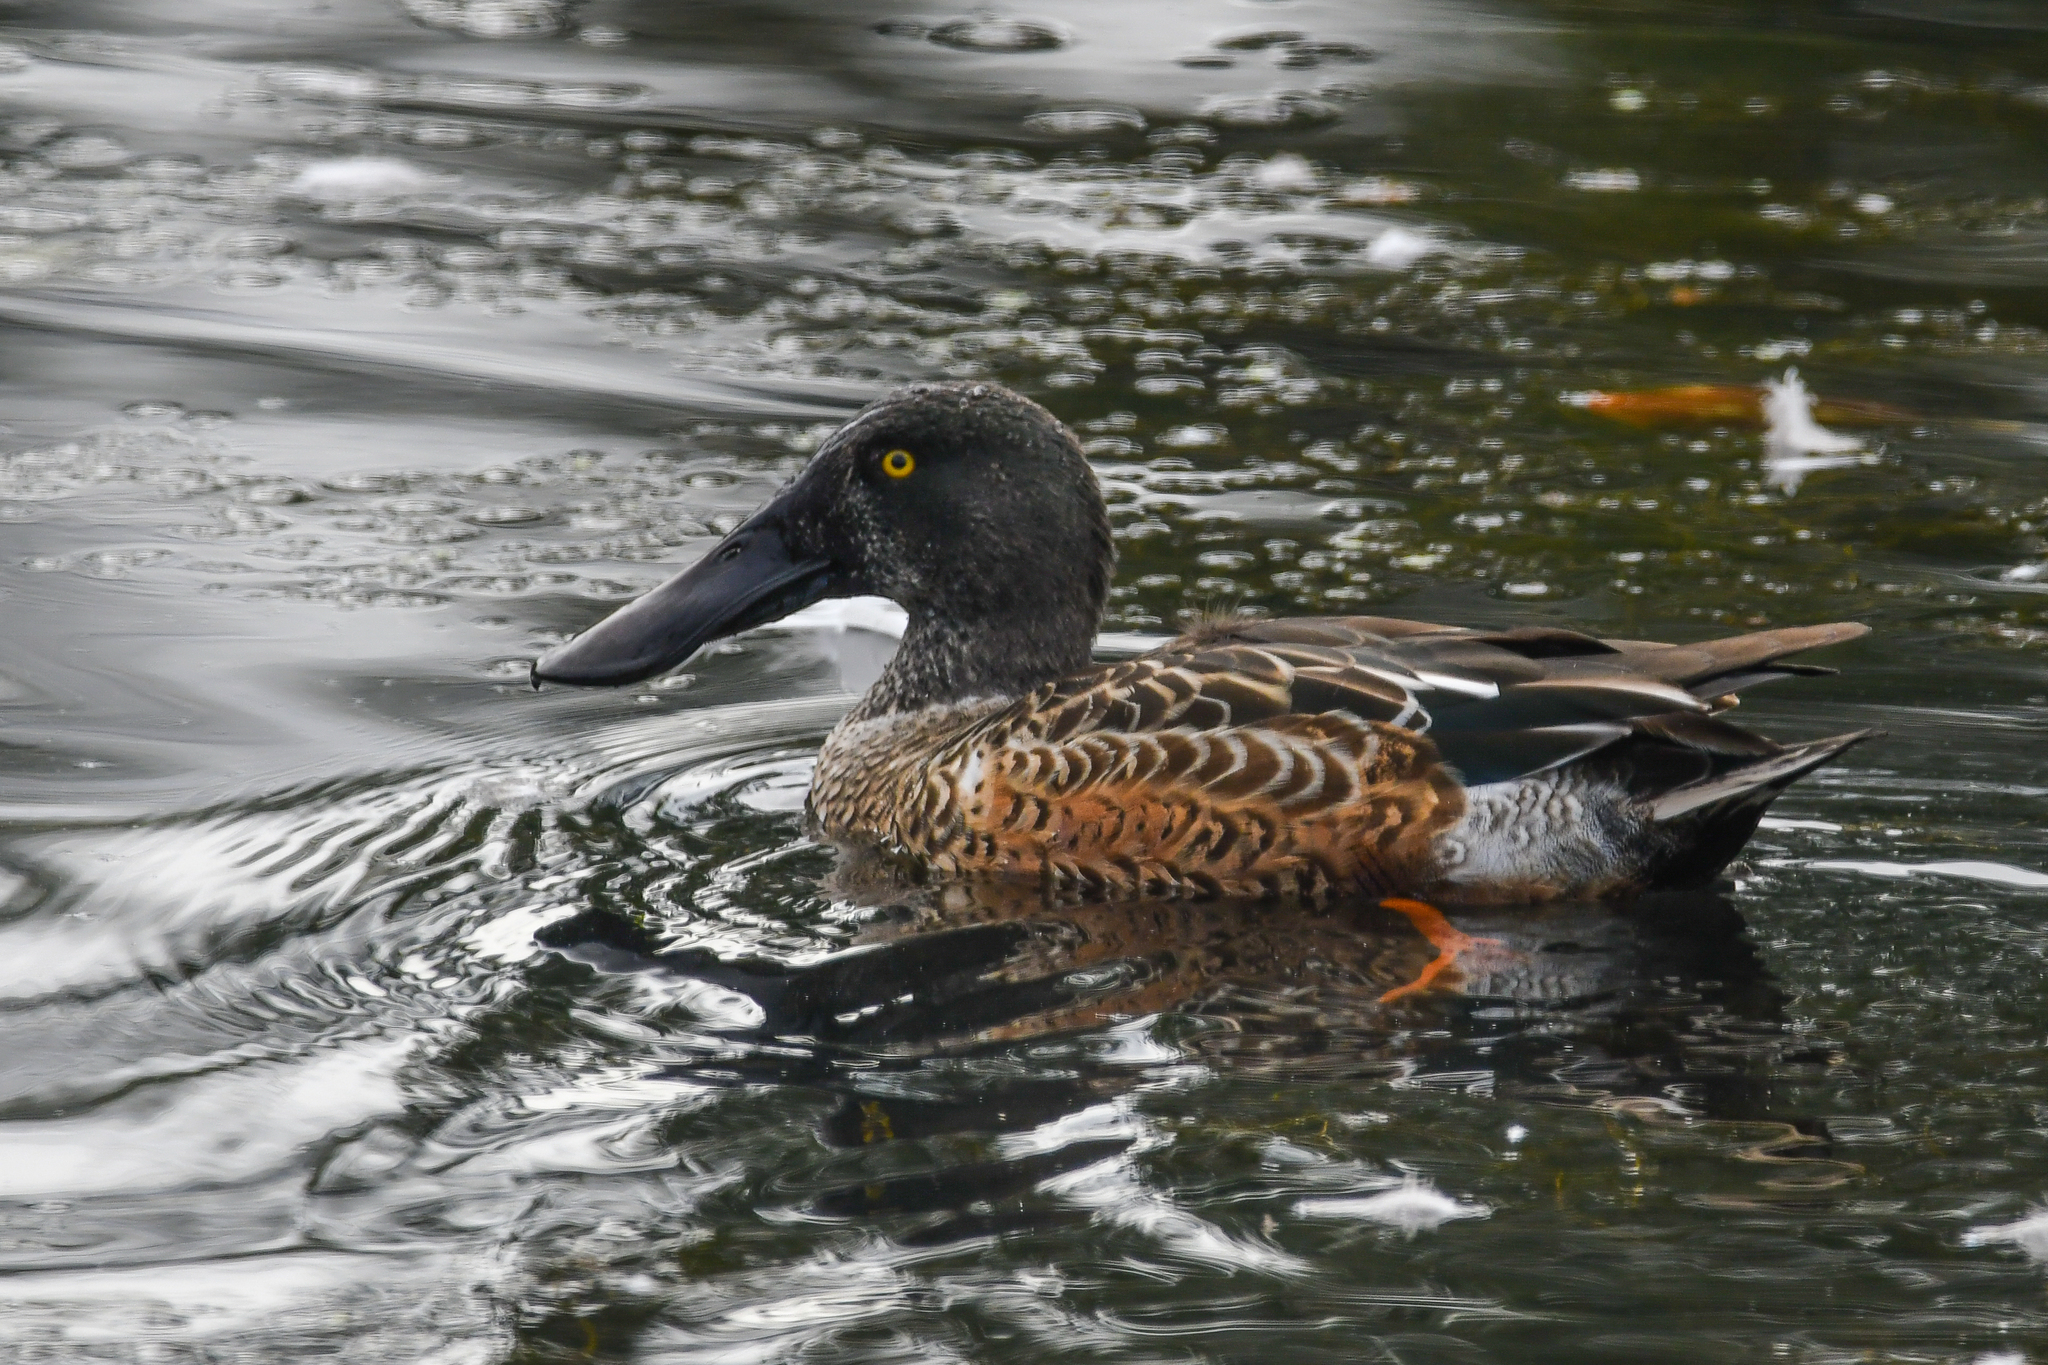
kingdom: Animalia
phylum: Chordata
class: Aves
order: Anseriformes
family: Anatidae
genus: Spatula
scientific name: Spatula clypeata
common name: Northern shoveler
